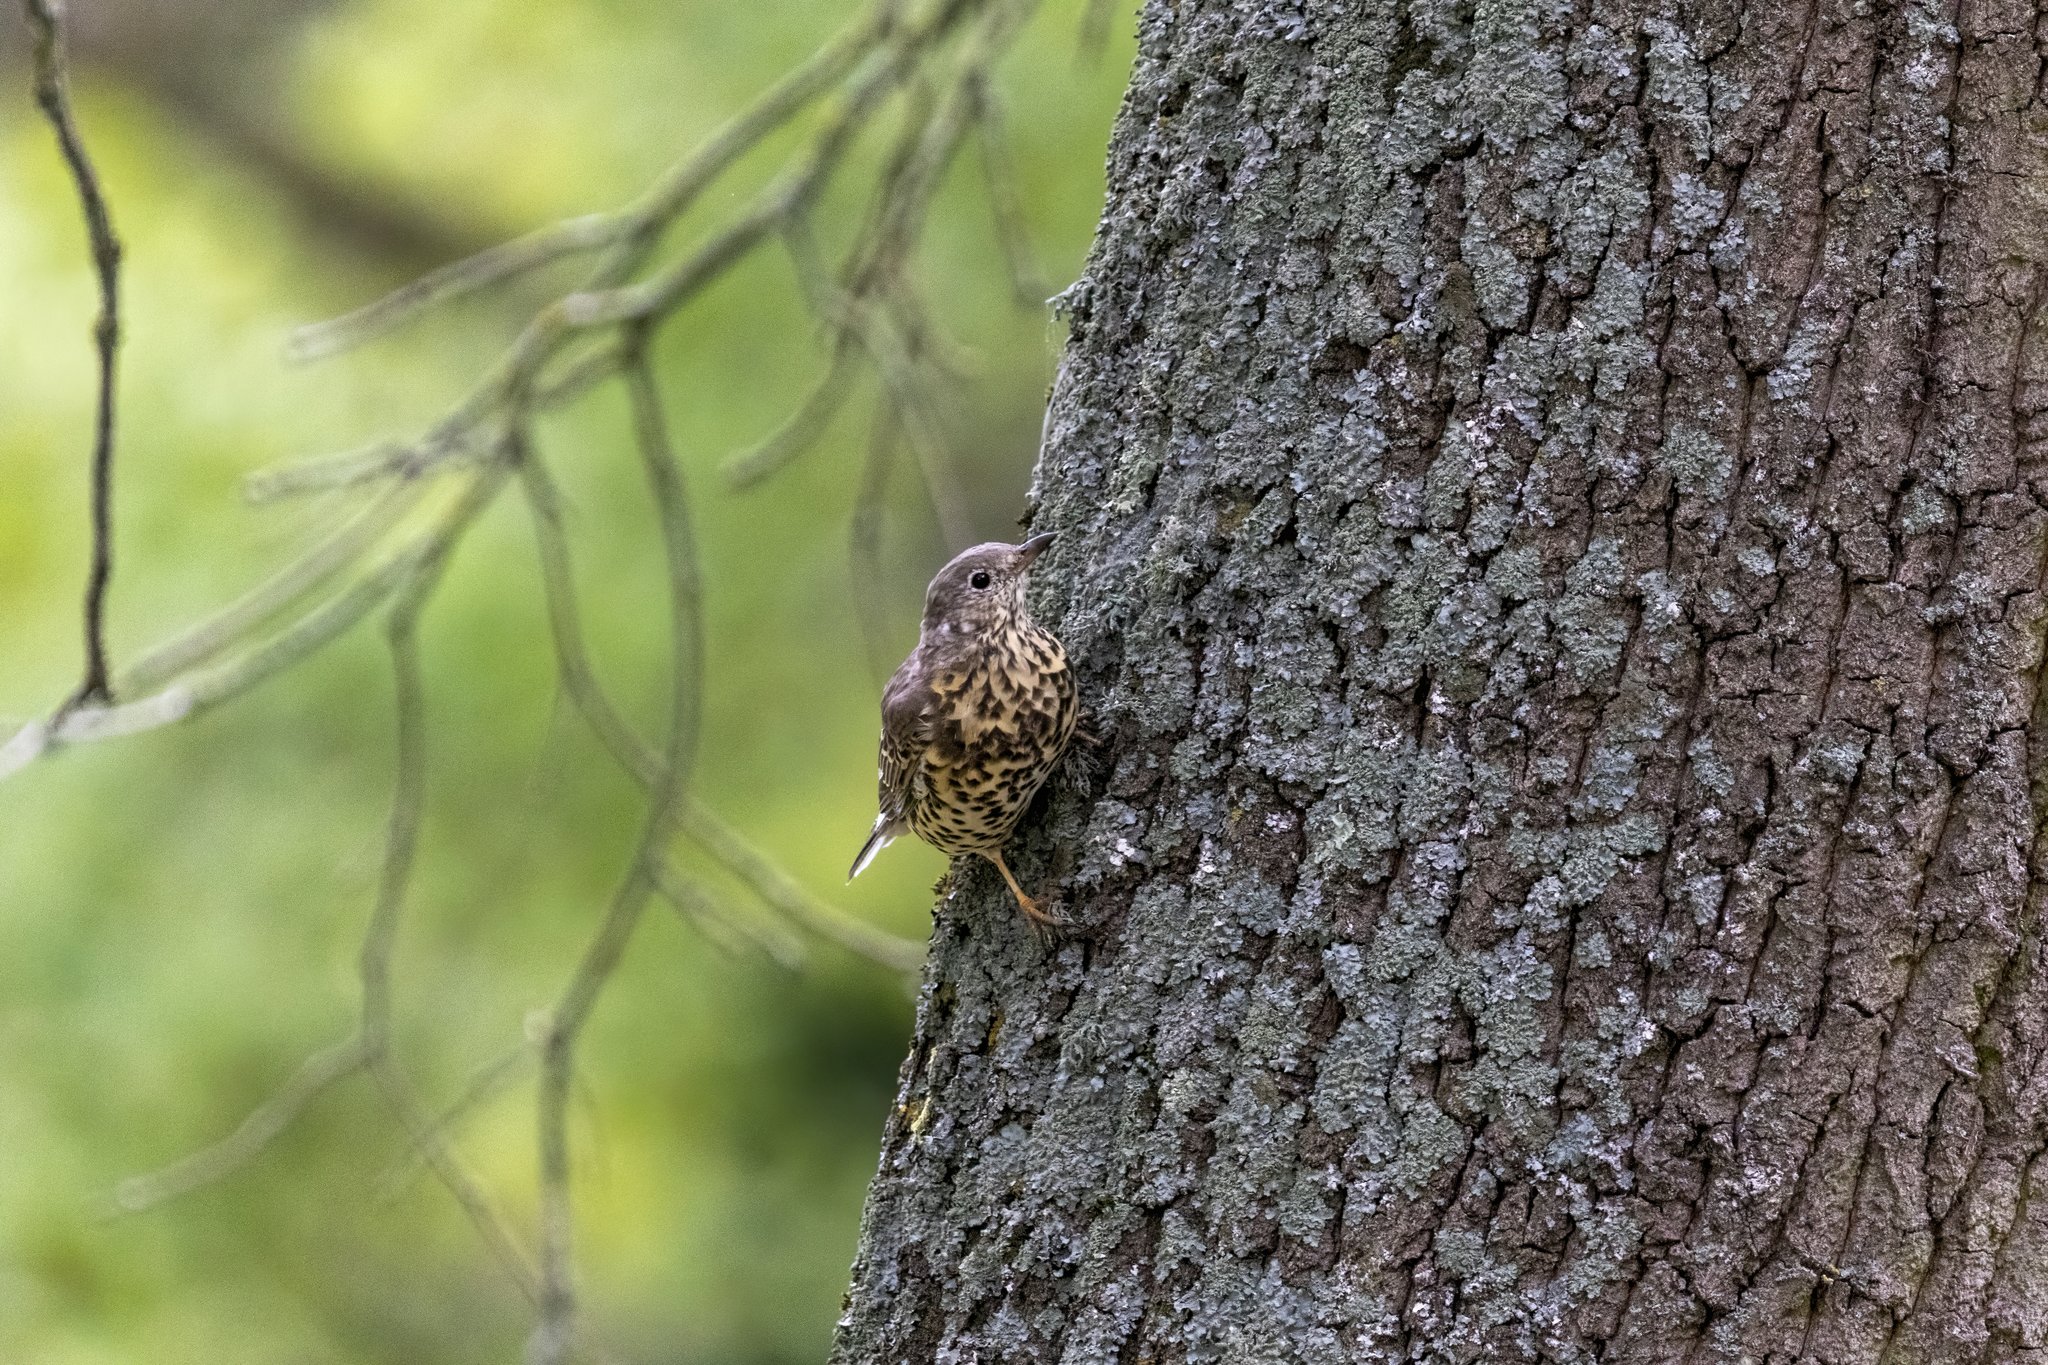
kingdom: Animalia
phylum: Chordata
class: Aves
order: Passeriformes
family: Turdidae
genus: Turdus
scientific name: Turdus viscivorus
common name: Mistle thrush
